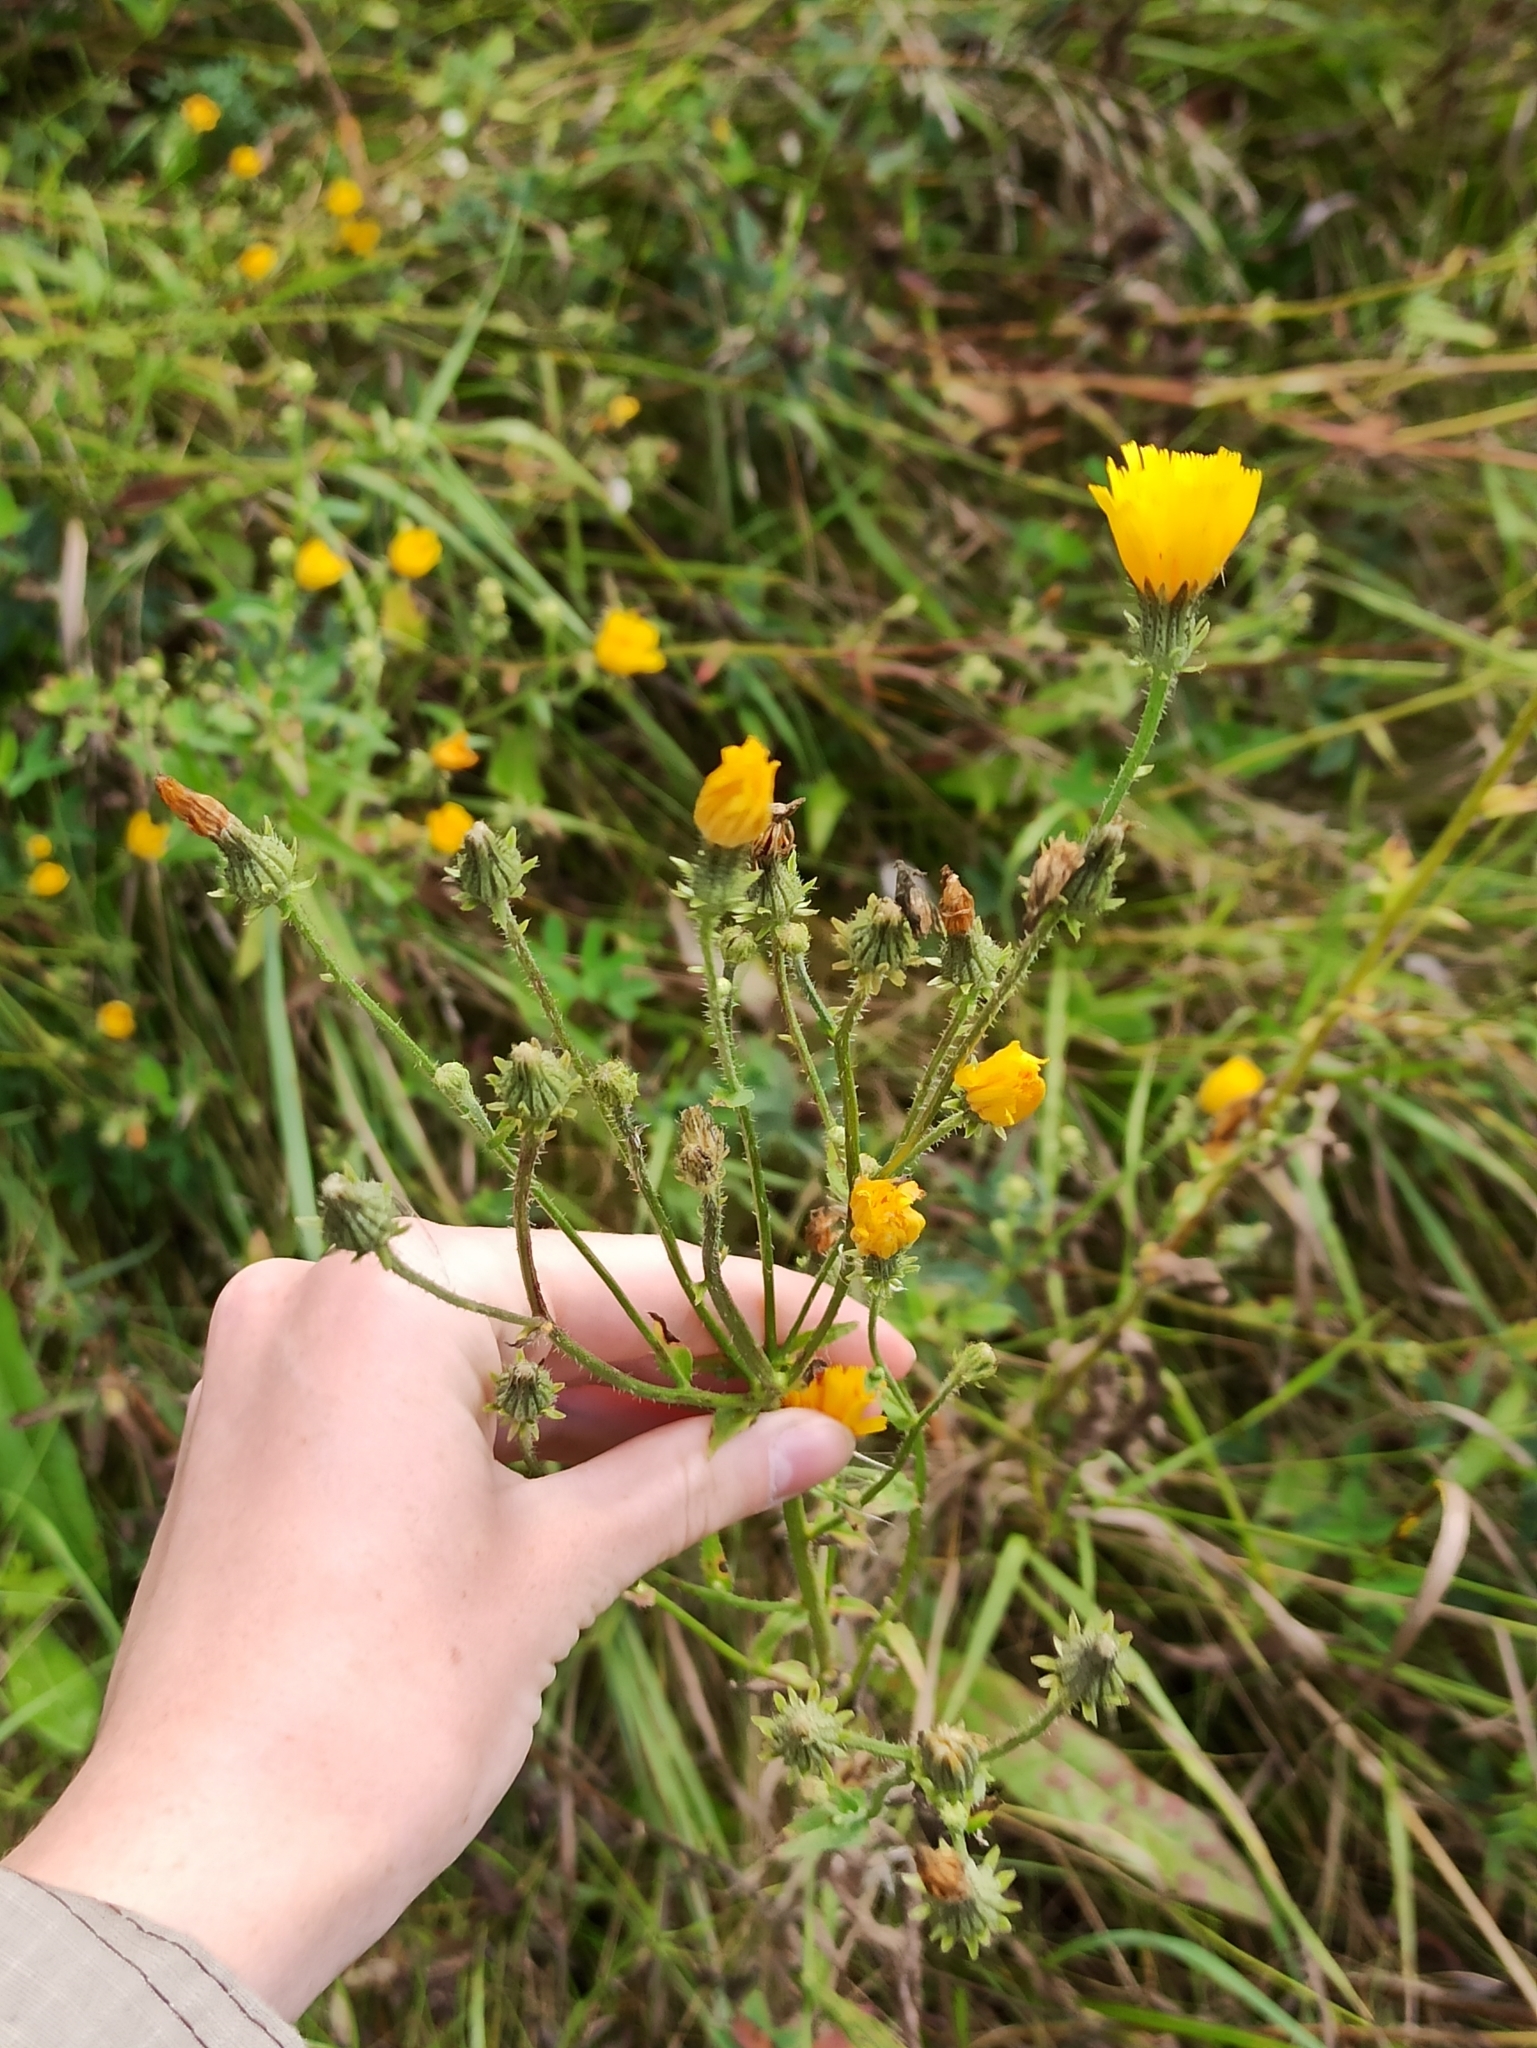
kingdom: Plantae
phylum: Tracheophyta
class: Magnoliopsida
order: Asterales
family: Asteraceae
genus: Picris
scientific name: Picris hieracioides
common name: Hawkweed oxtongue
